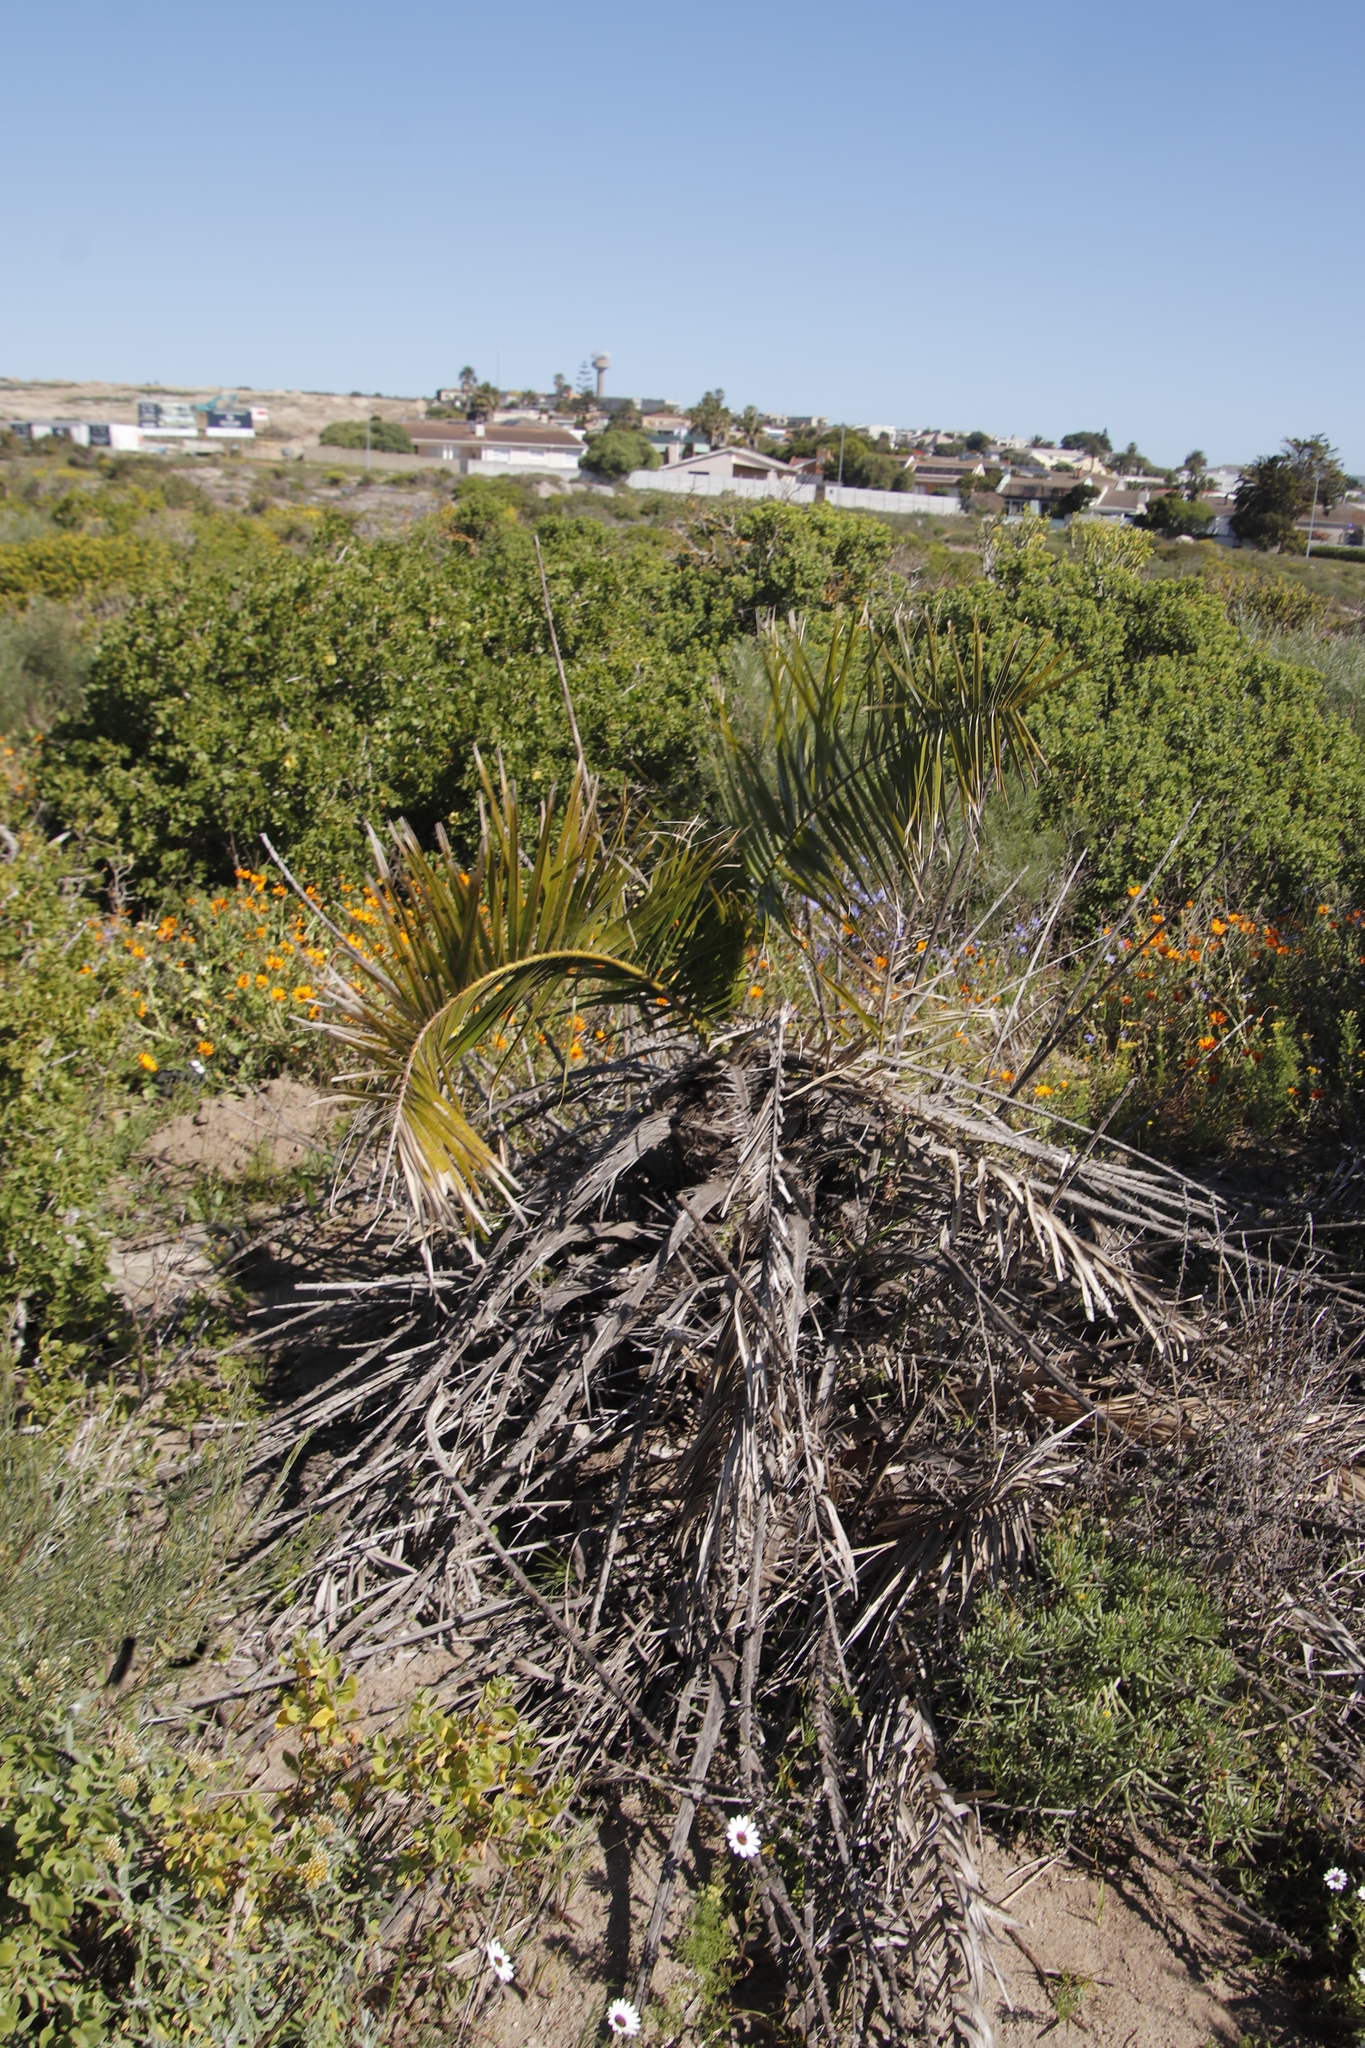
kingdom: Plantae
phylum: Tracheophyta
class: Liliopsida
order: Arecales
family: Arecaceae
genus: Phoenix
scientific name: Phoenix canariensis
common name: Canary island date palm
